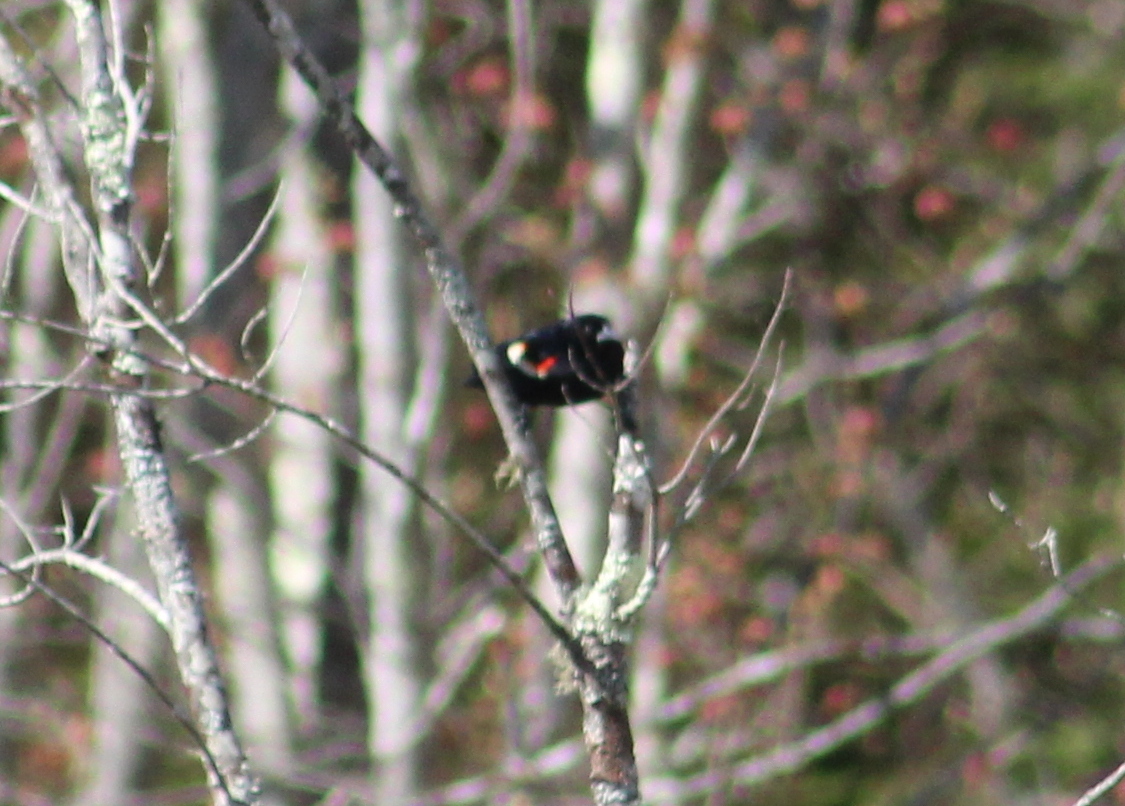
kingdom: Animalia
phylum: Chordata
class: Aves
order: Passeriformes
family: Icteridae
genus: Agelaius
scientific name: Agelaius phoeniceus
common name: Red-winged blackbird
